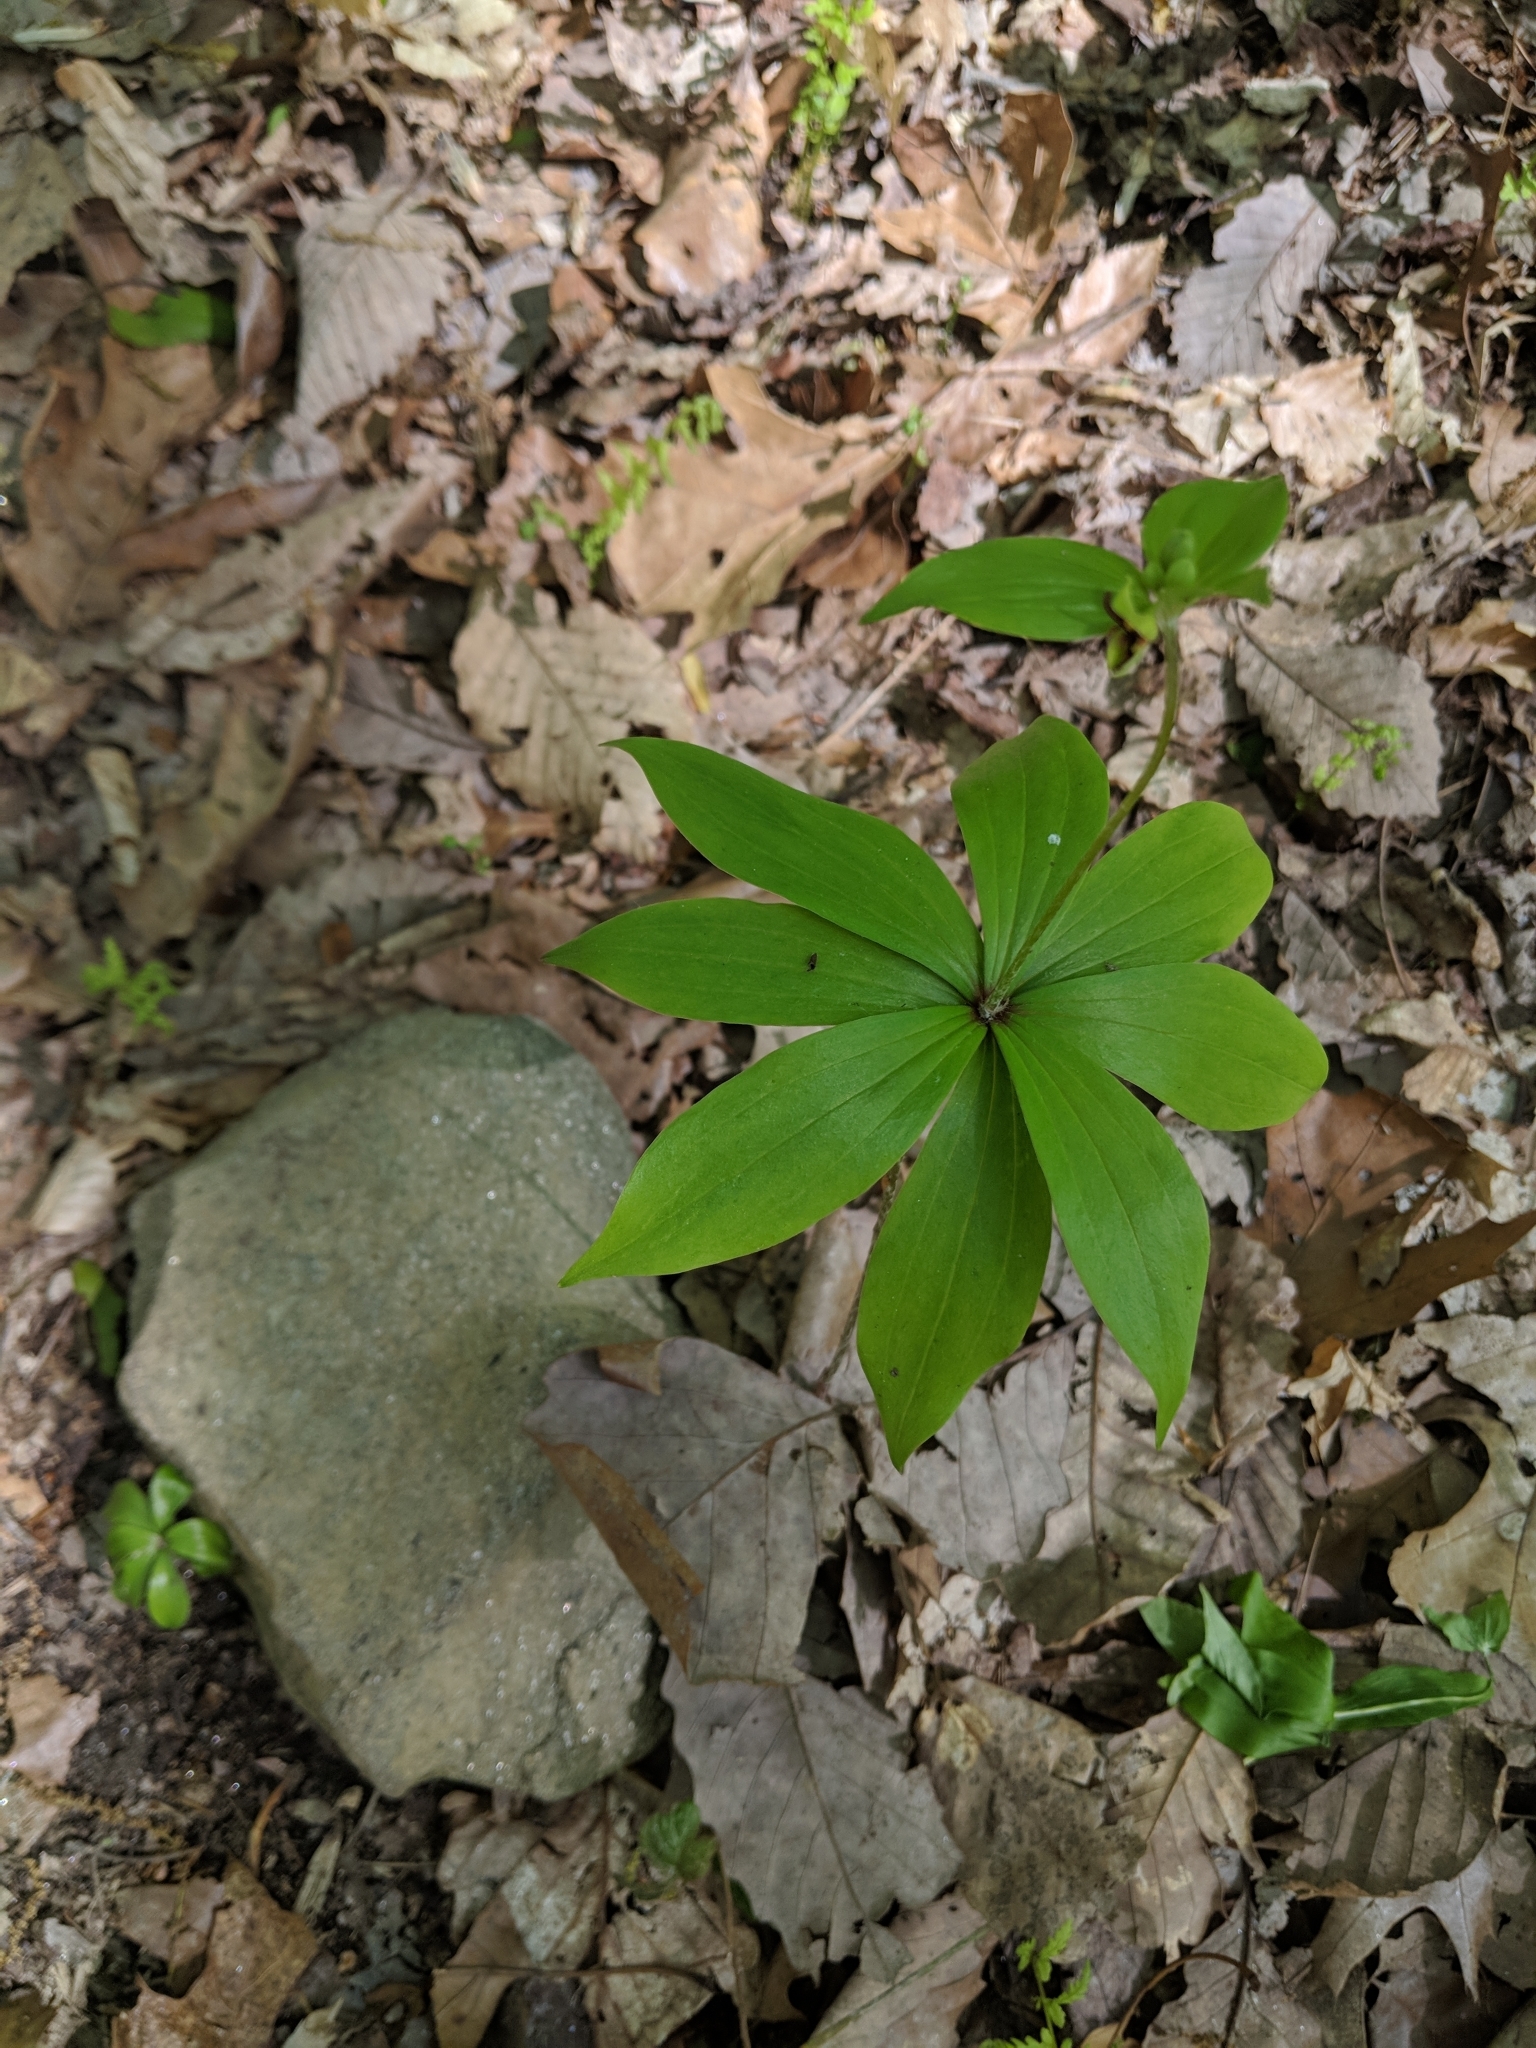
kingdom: Plantae
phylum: Tracheophyta
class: Liliopsida
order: Liliales
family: Liliaceae
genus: Medeola
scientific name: Medeola virginiana
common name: Indian cucumber-root
